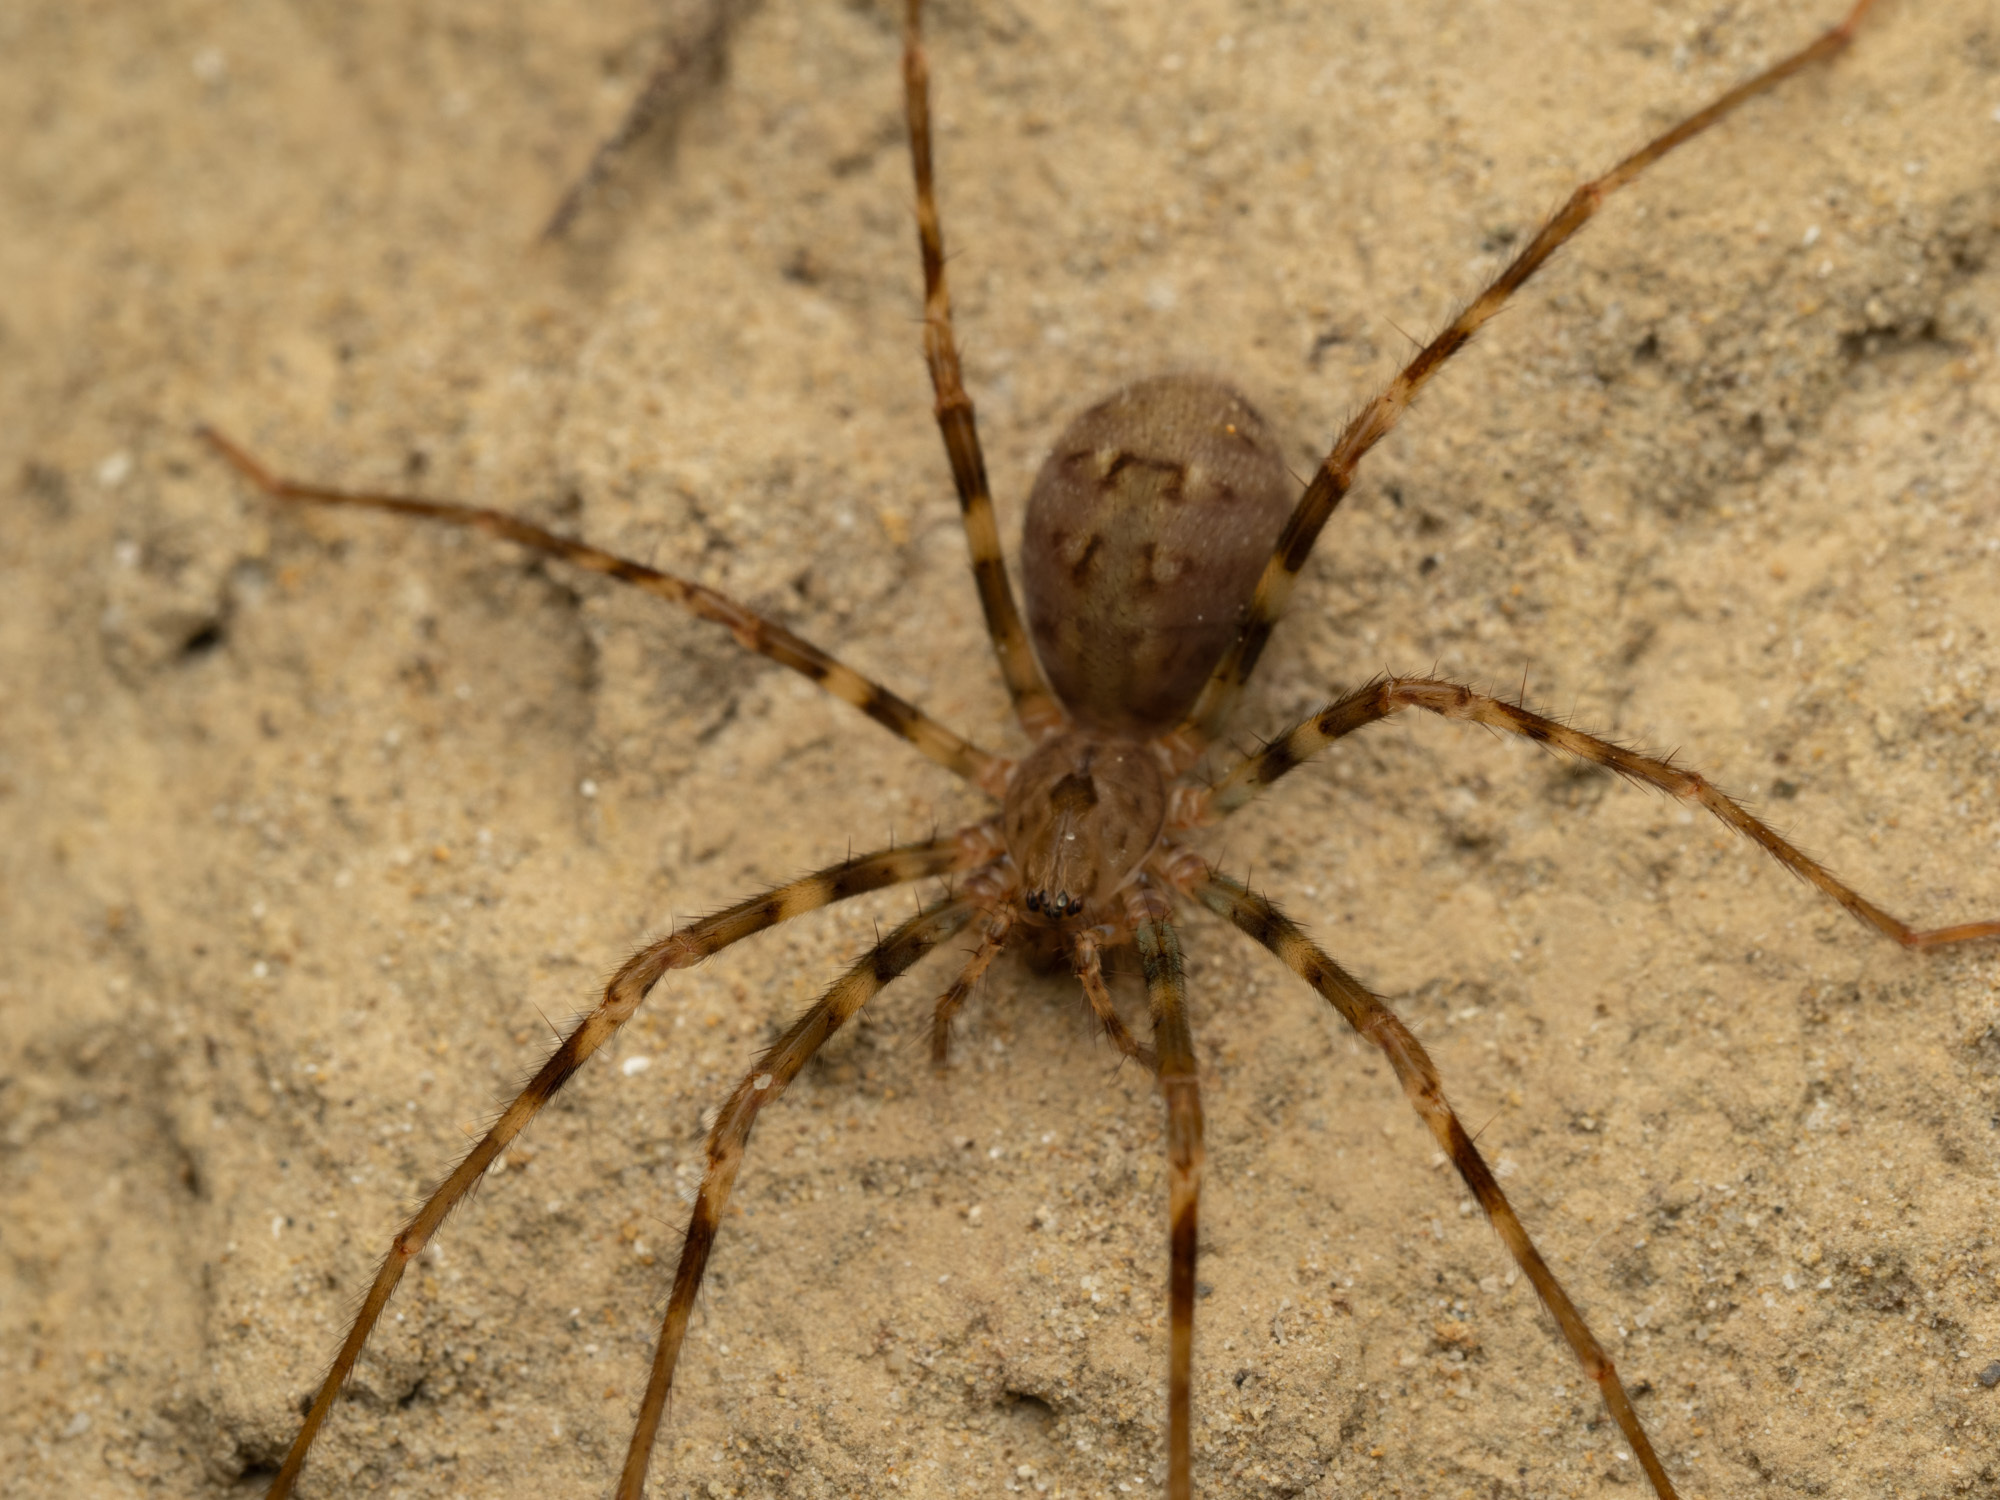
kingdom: Animalia
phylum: Arthropoda
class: Arachnida
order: Araneae
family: Gradungulidae
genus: Spelungula
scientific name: Spelungula cavernicola
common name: Nelson cave spider
